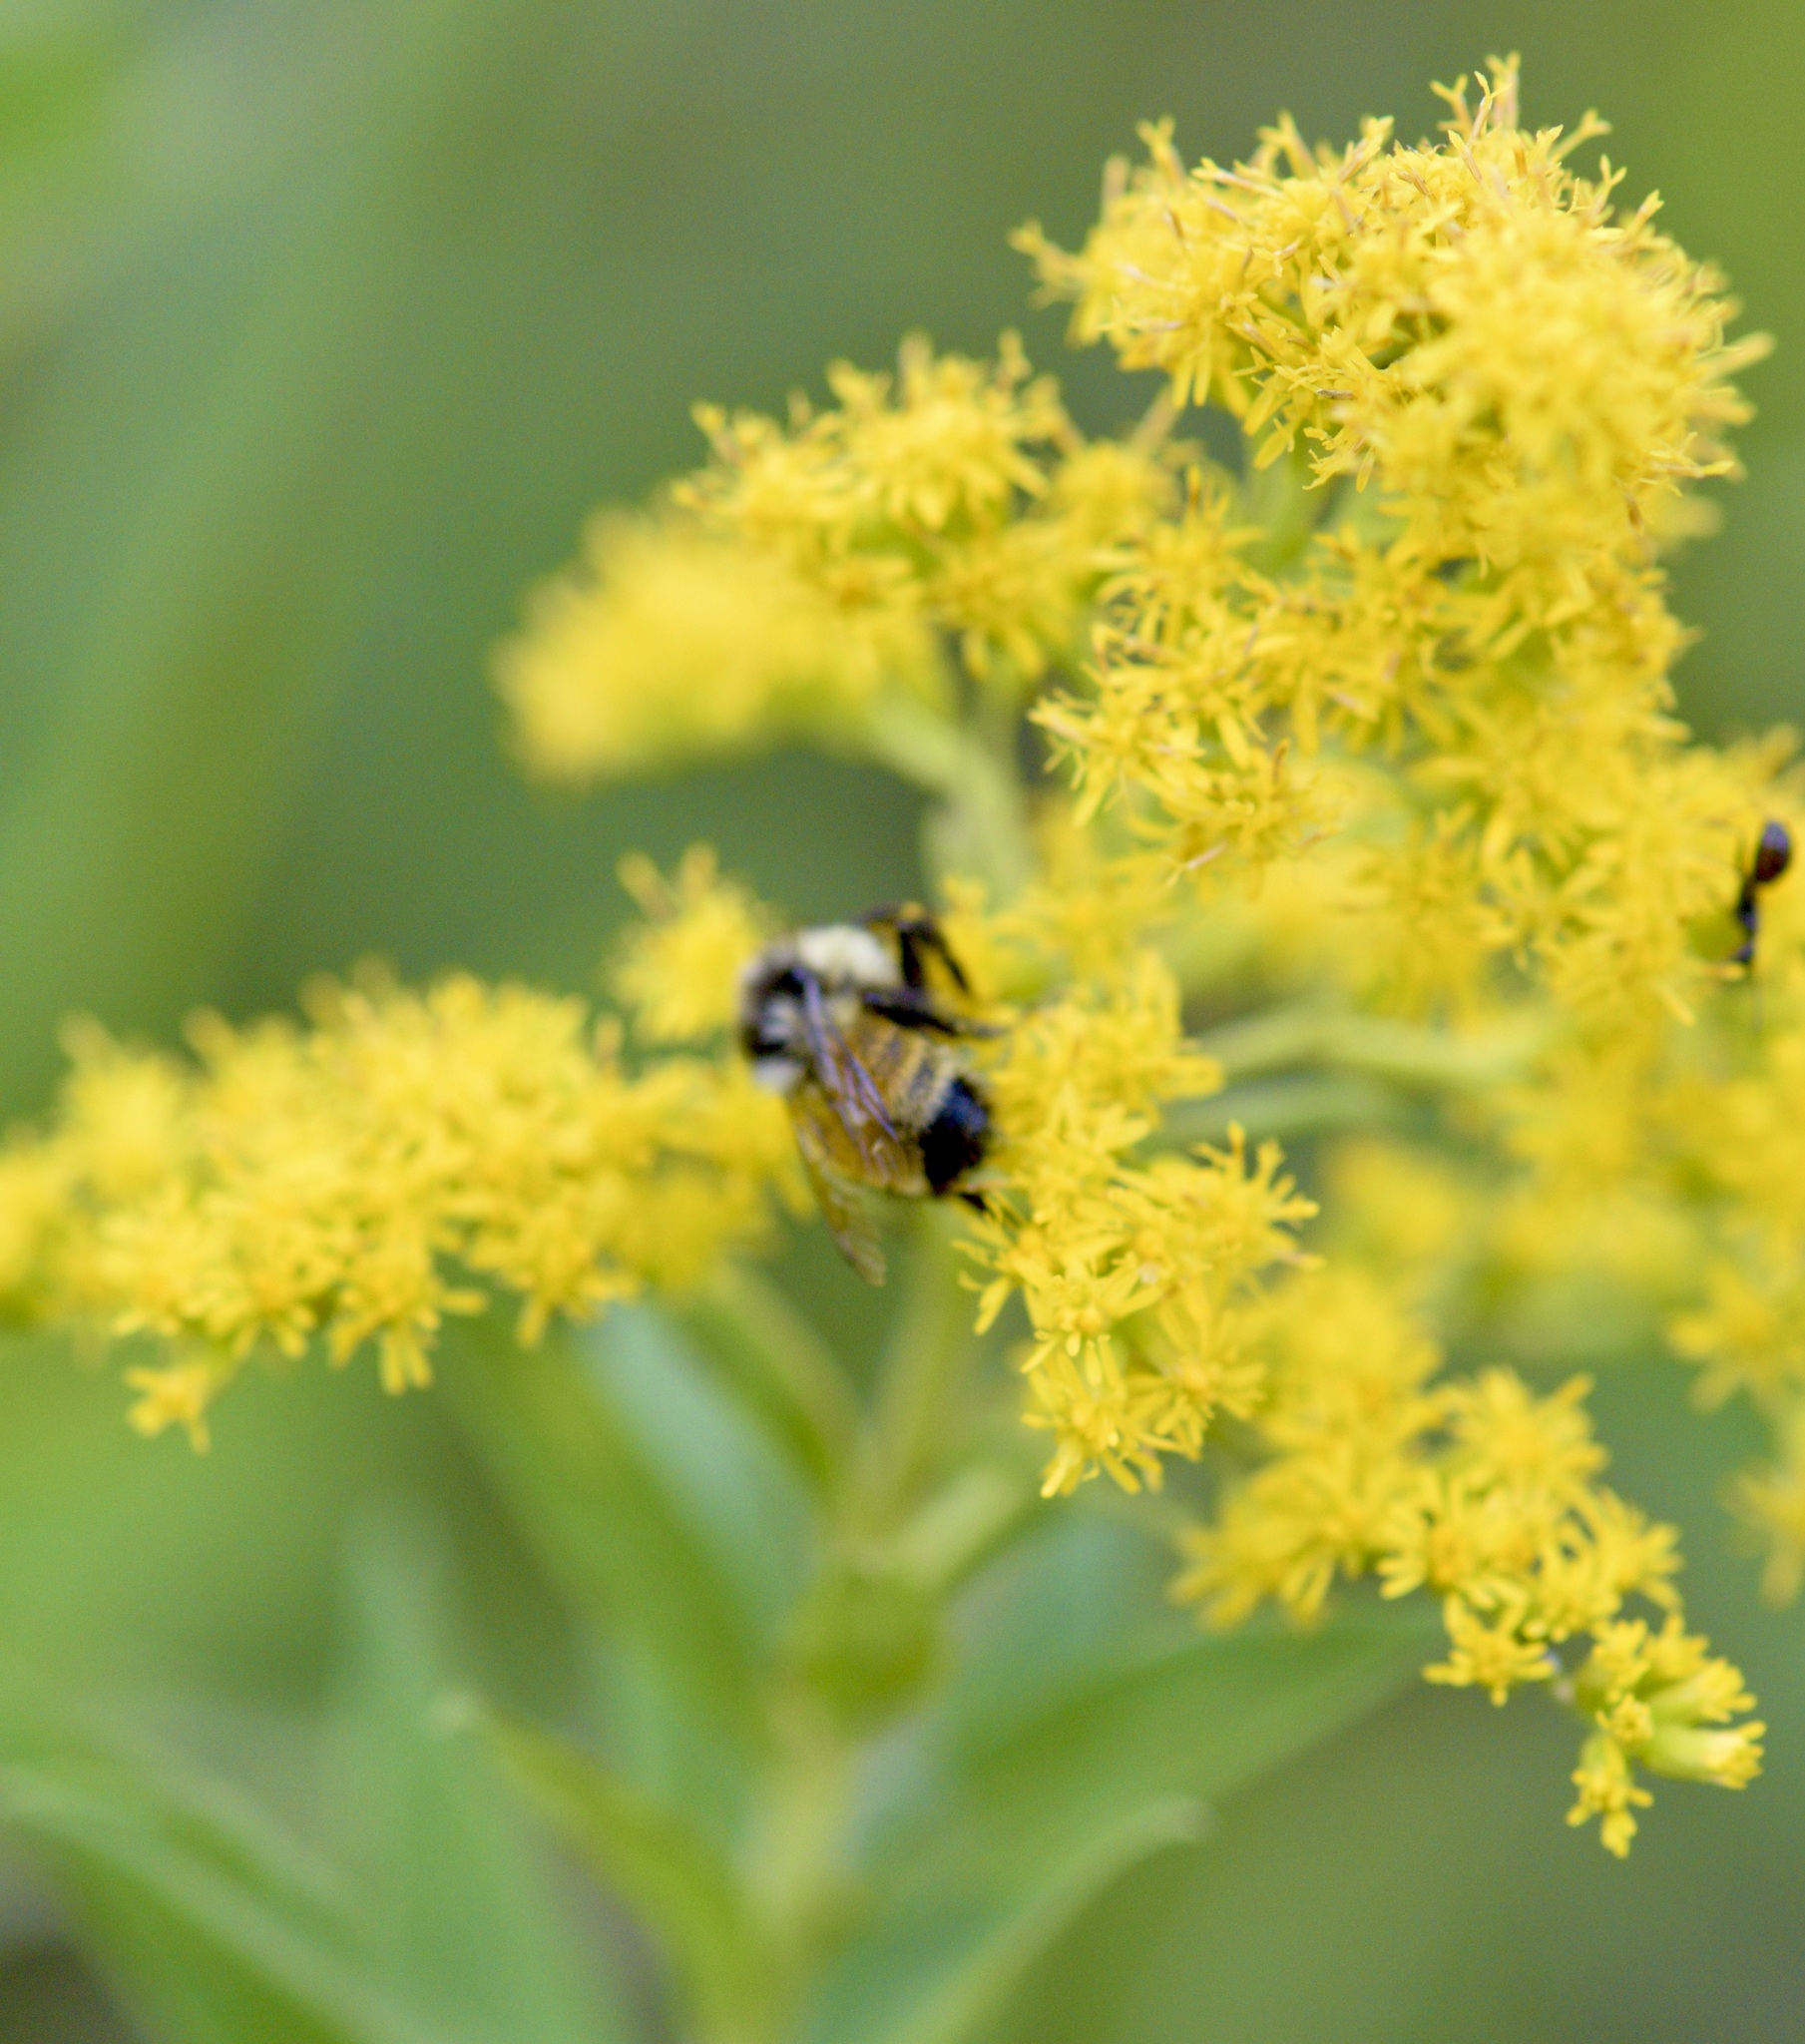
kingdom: Animalia
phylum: Arthropoda
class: Insecta
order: Hymenoptera
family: Apidae
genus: Bombus
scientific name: Bombus ternarius
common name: Tri-colored bumble bee
